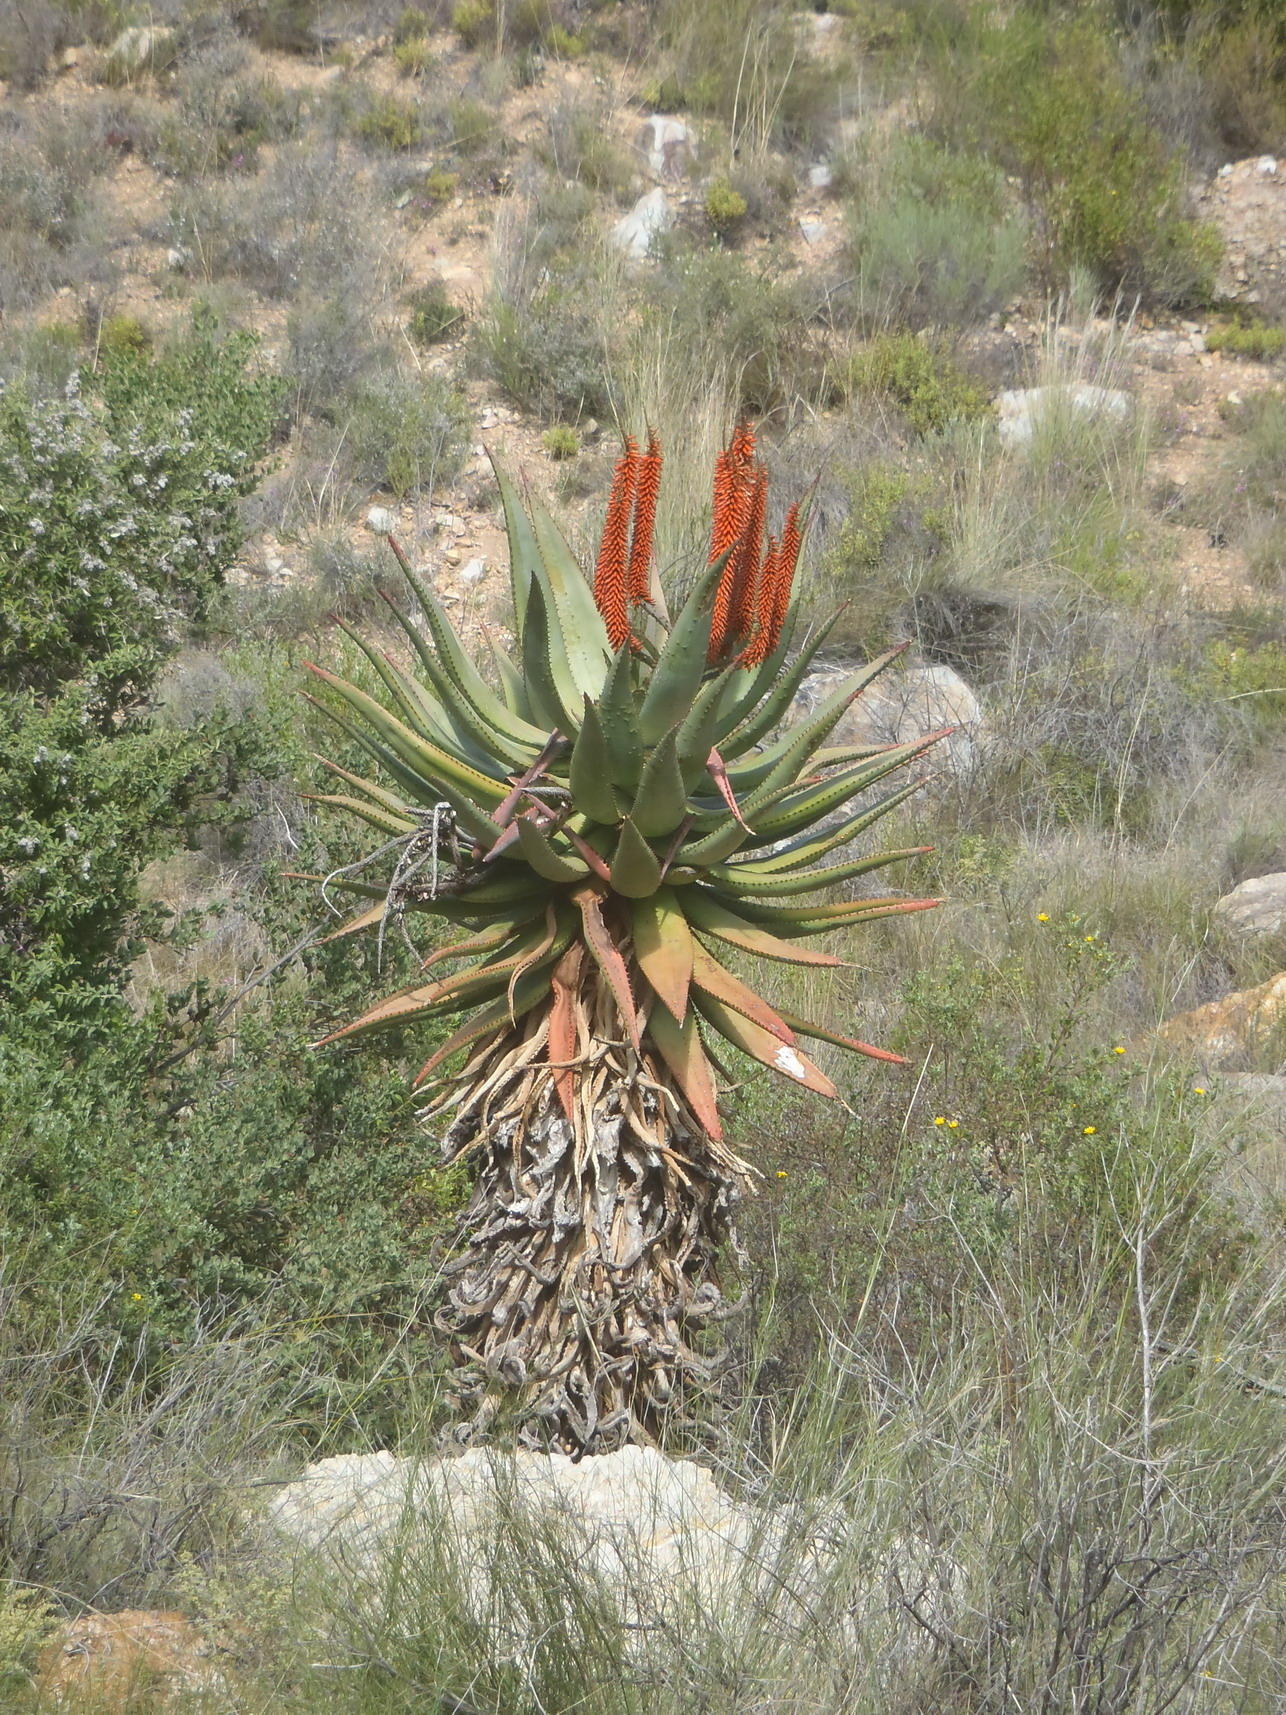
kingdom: Plantae
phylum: Tracheophyta
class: Liliopsida
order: Asparagales
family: Asphodelaceae
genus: Aloe
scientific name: Aloe ferox
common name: Bitter aloe
